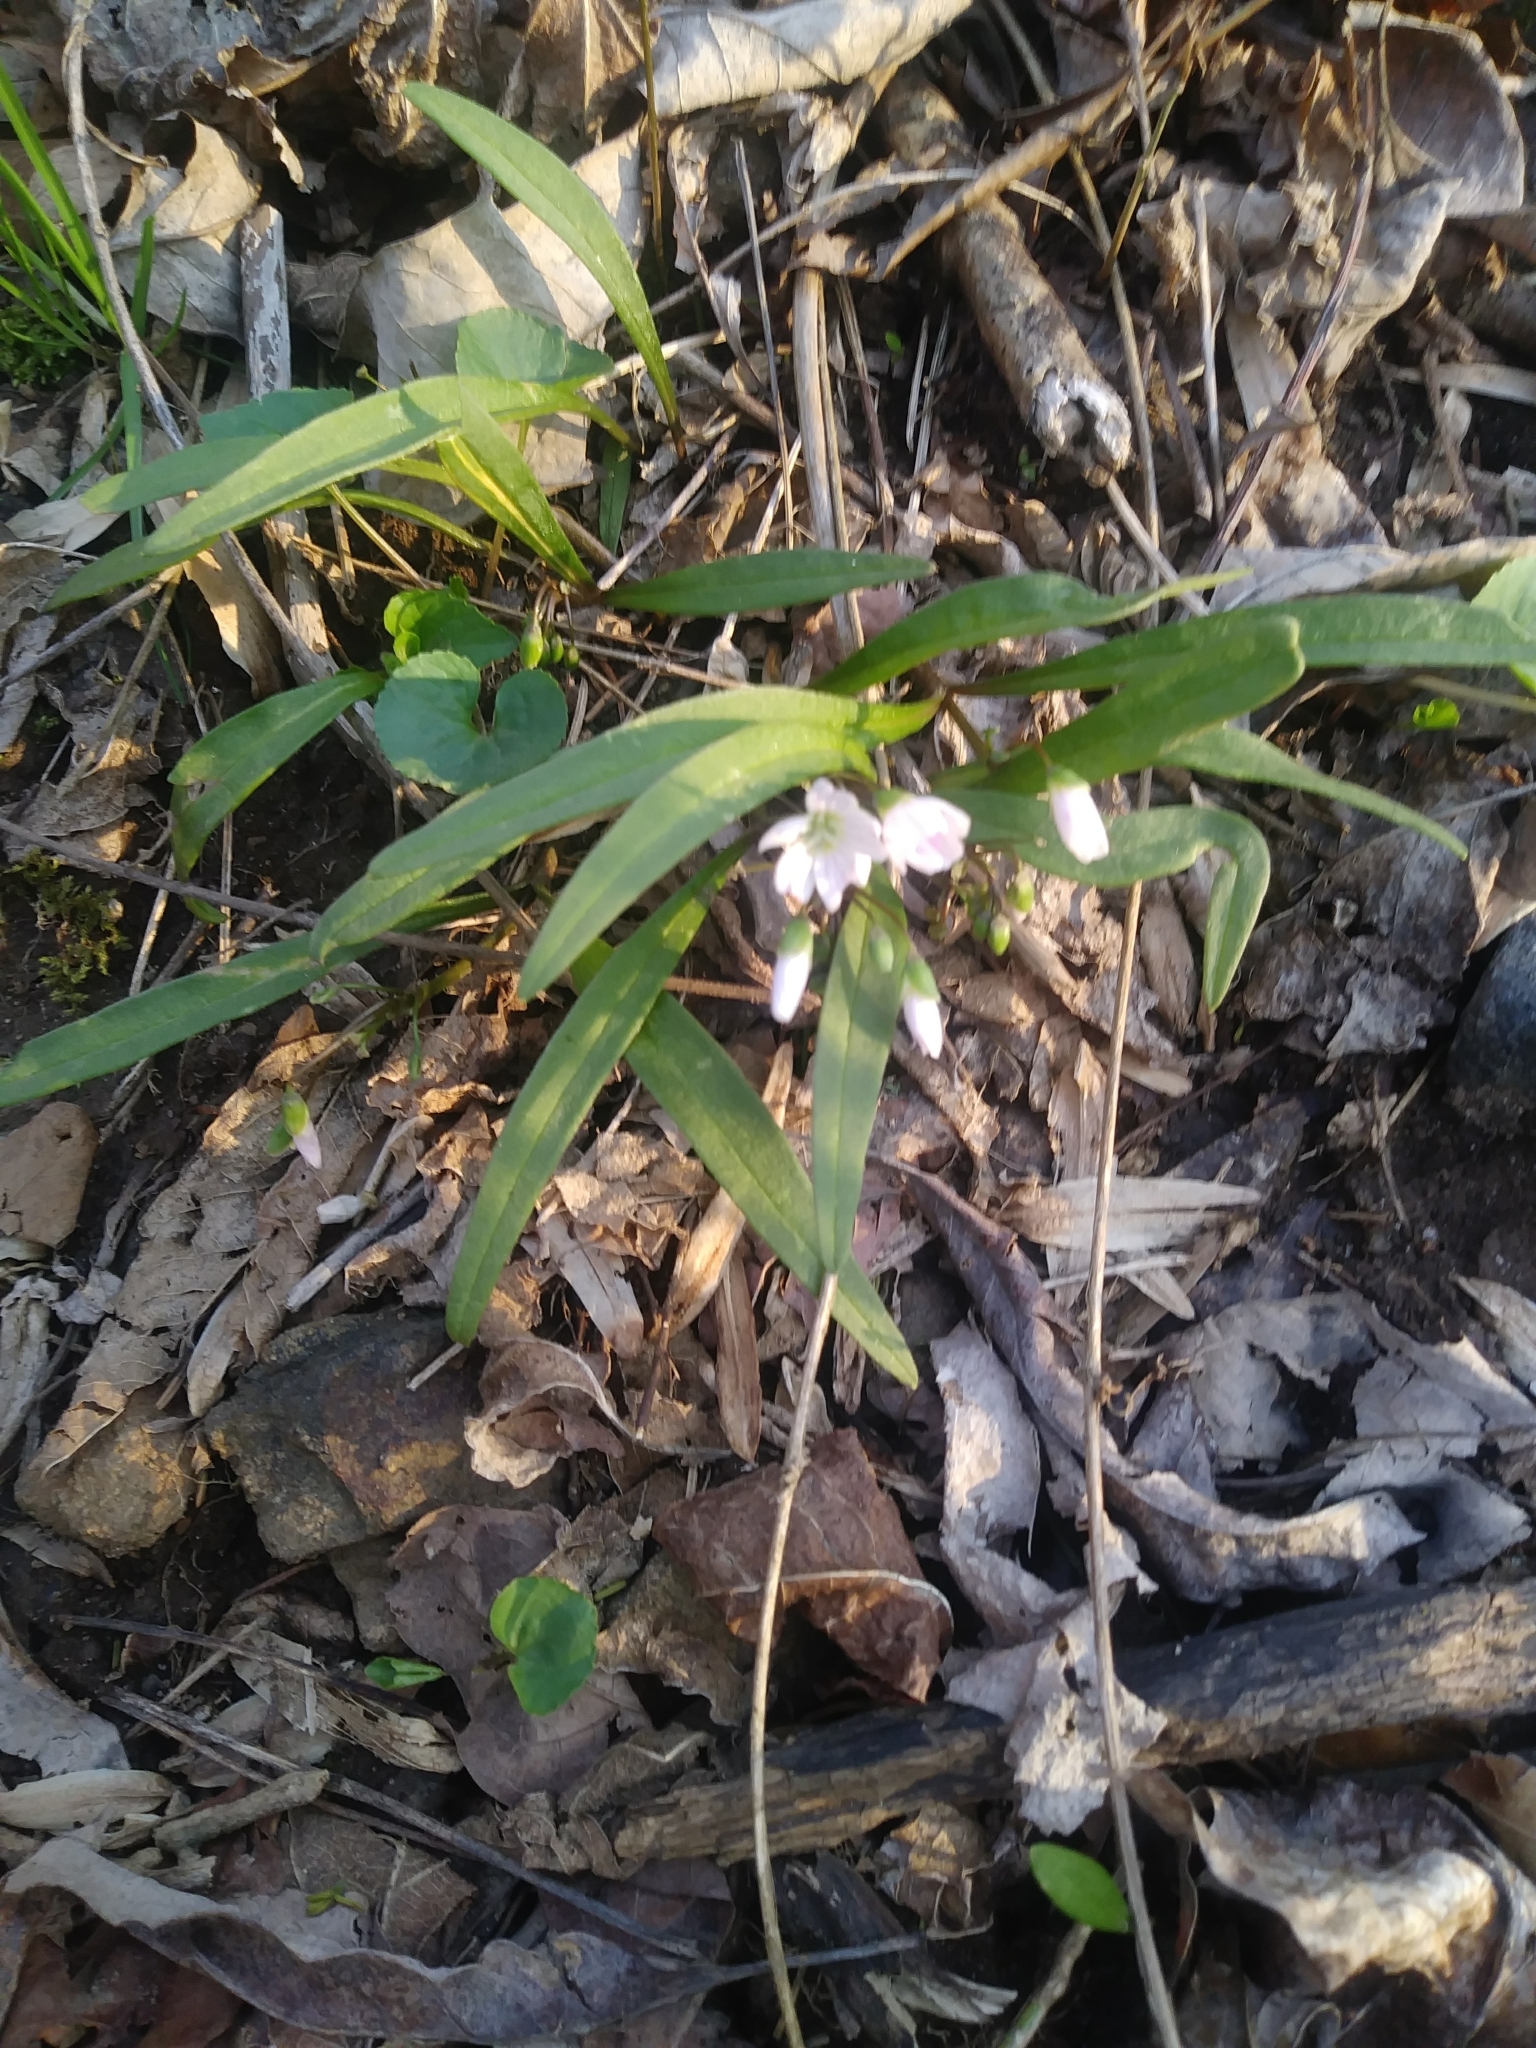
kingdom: Plantae
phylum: Tracheophyta
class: Magnoliopsida
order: Caryophyllales
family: Montiaceae
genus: Claytonia
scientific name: Claytonia virginica
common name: Virginia springbeauty
